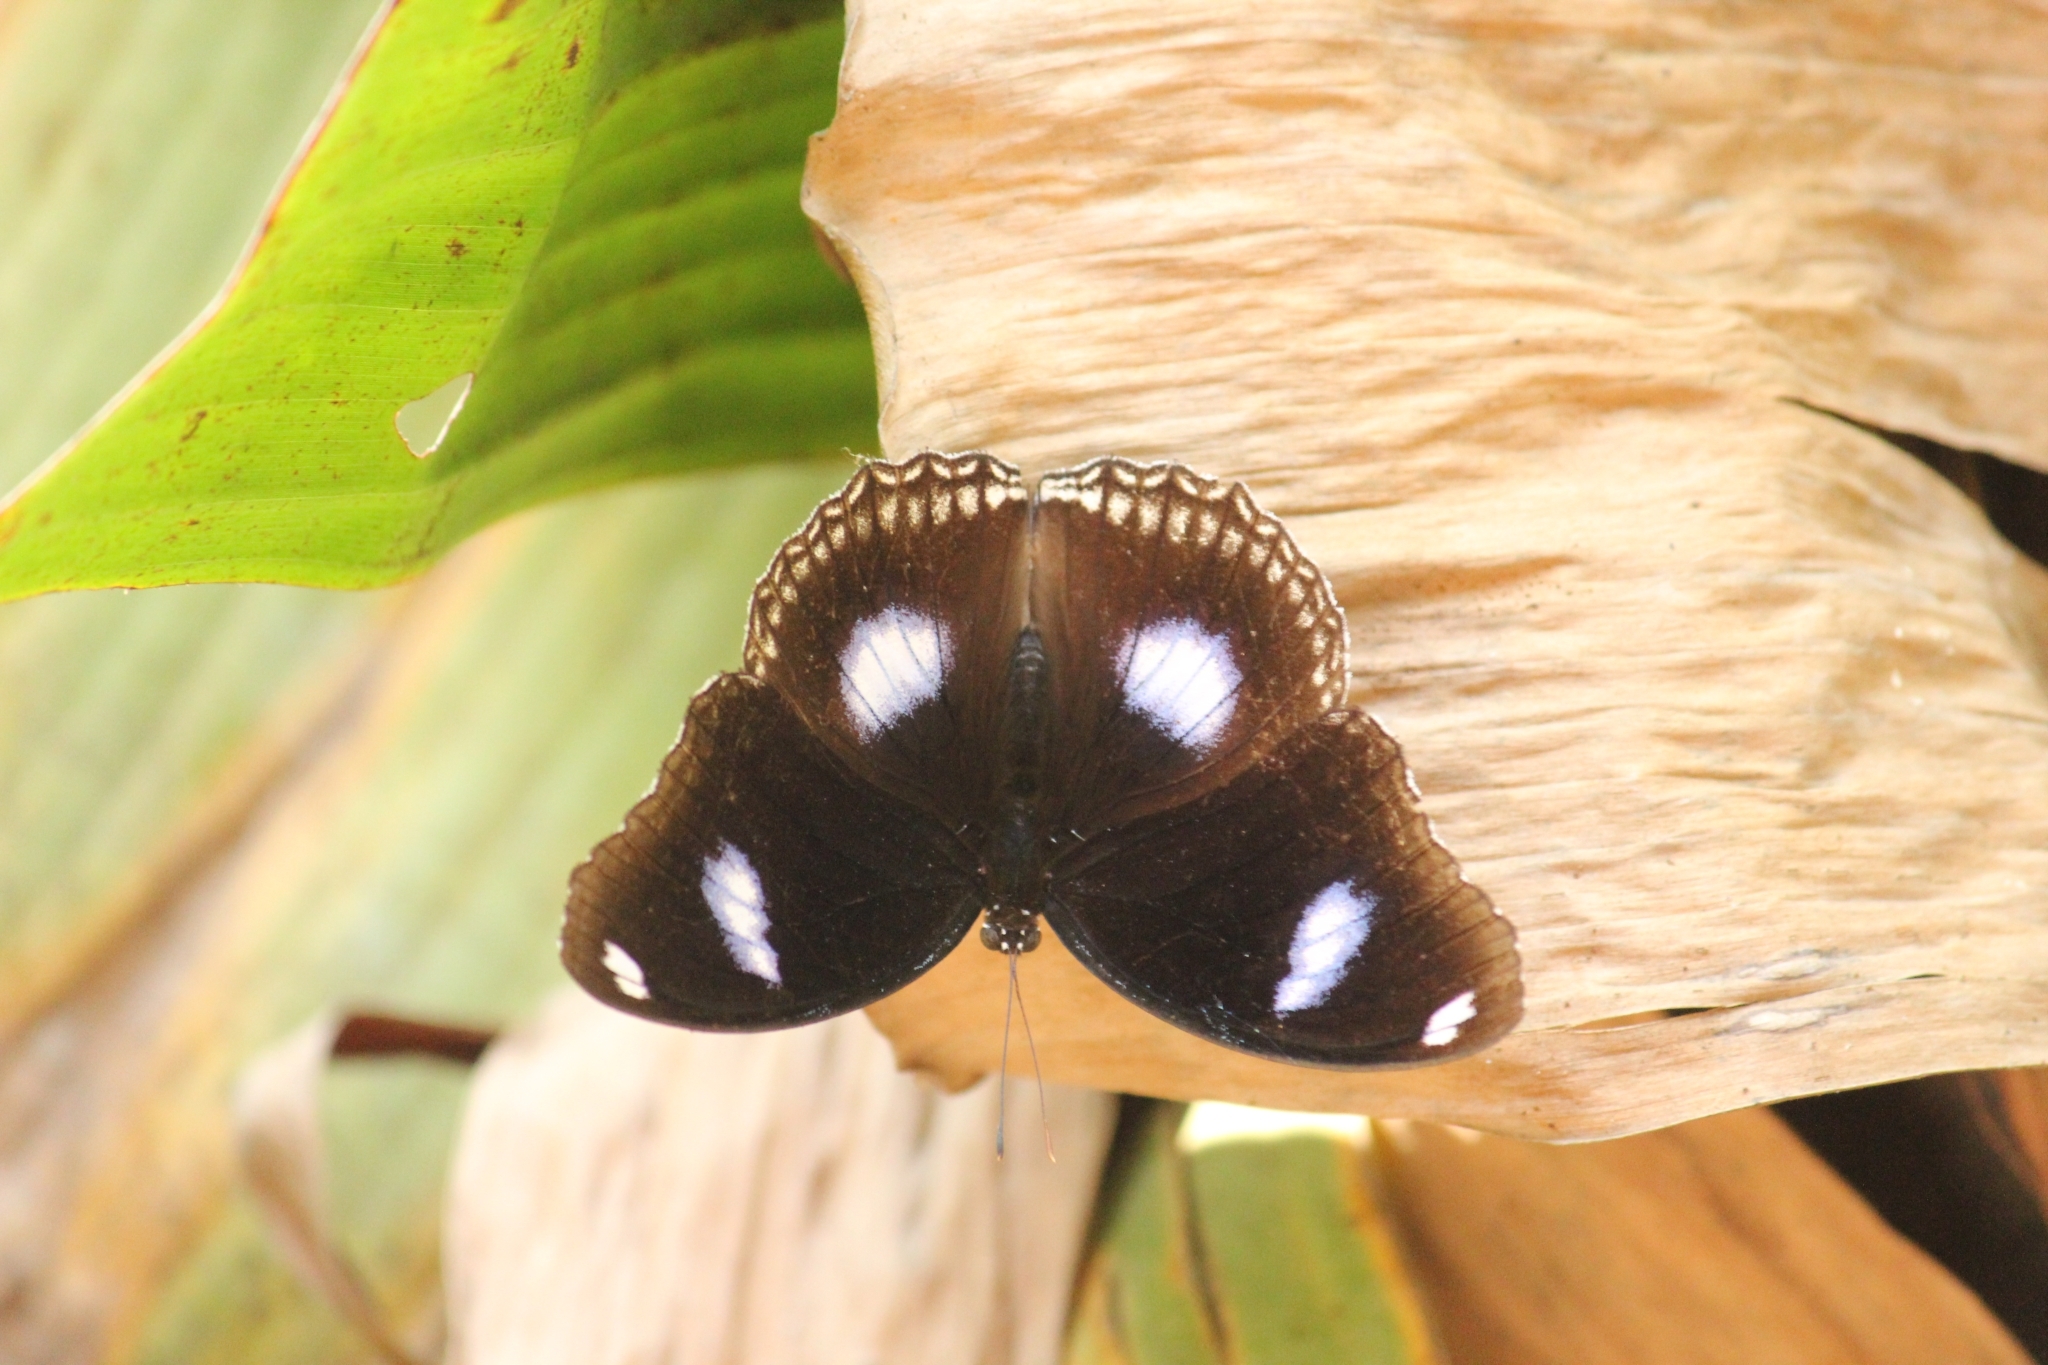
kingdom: Animalia
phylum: Arthropoda
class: Insecta
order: Lepidoptera
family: Nymphalidae
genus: Hypolimnas
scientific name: Hypolimnas bolina
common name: Great eggfly
